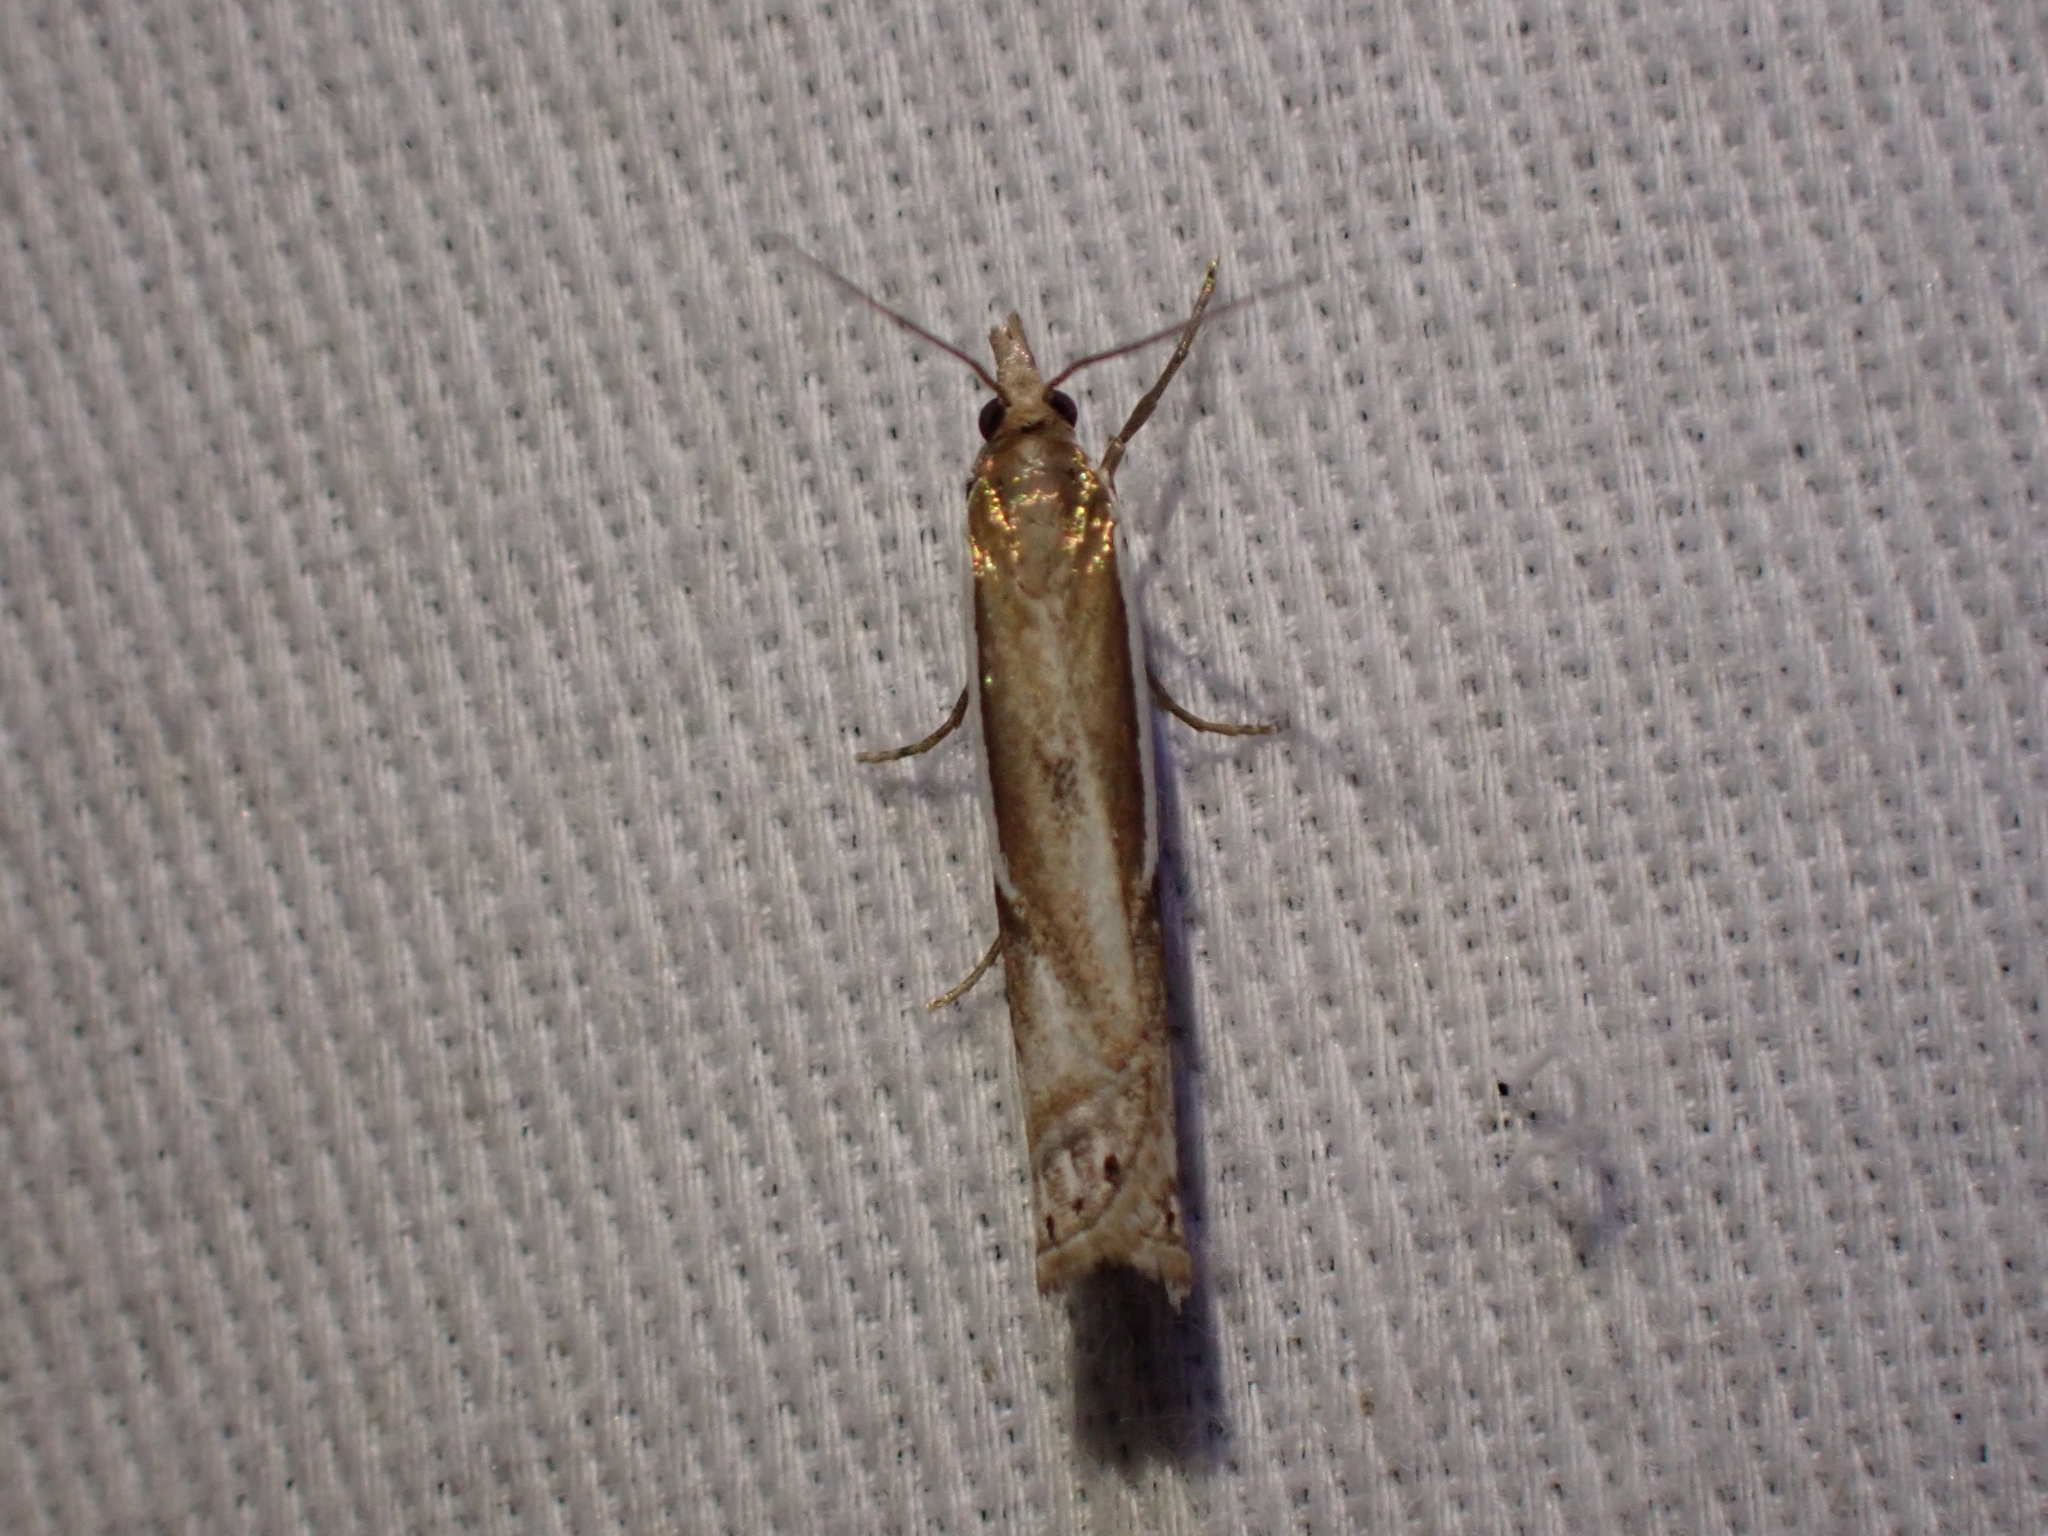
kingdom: Animalia
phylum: Arthropoda
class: Insecta
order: Lepidoptera
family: Crambidae
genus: Crambus
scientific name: Crambus hamella
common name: Dark grass-veneer
